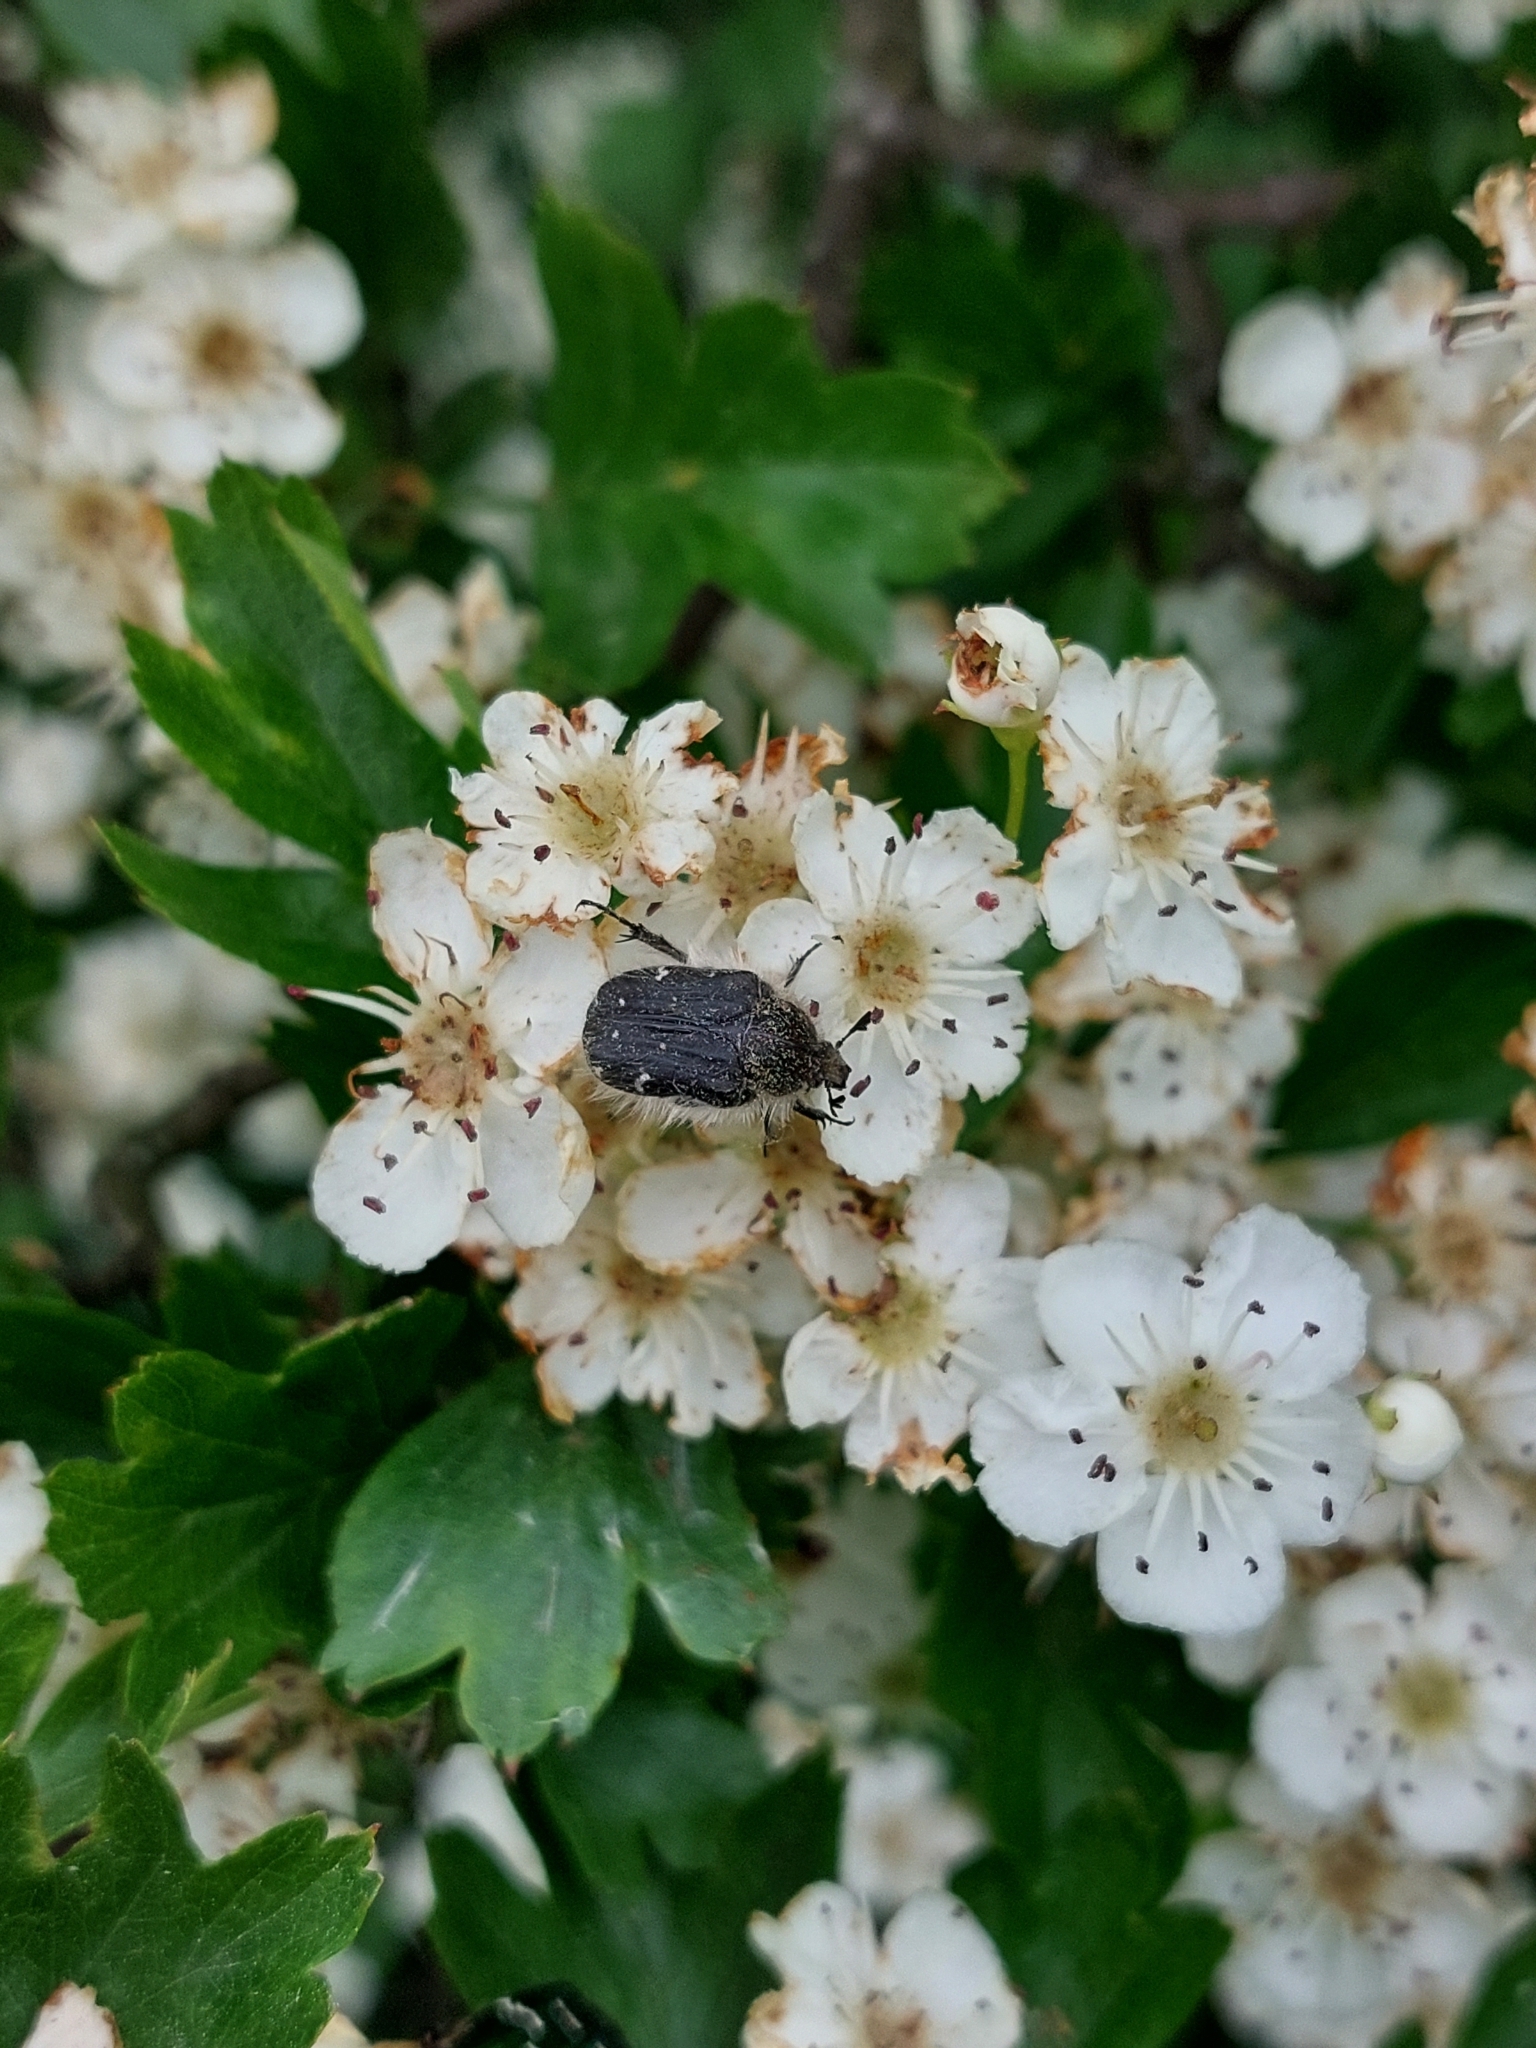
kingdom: Animalia
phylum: Arthropoda
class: Insecta
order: Coleoptera
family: Scarabaeidae
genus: Tropinota
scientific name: Tropinota hirta
